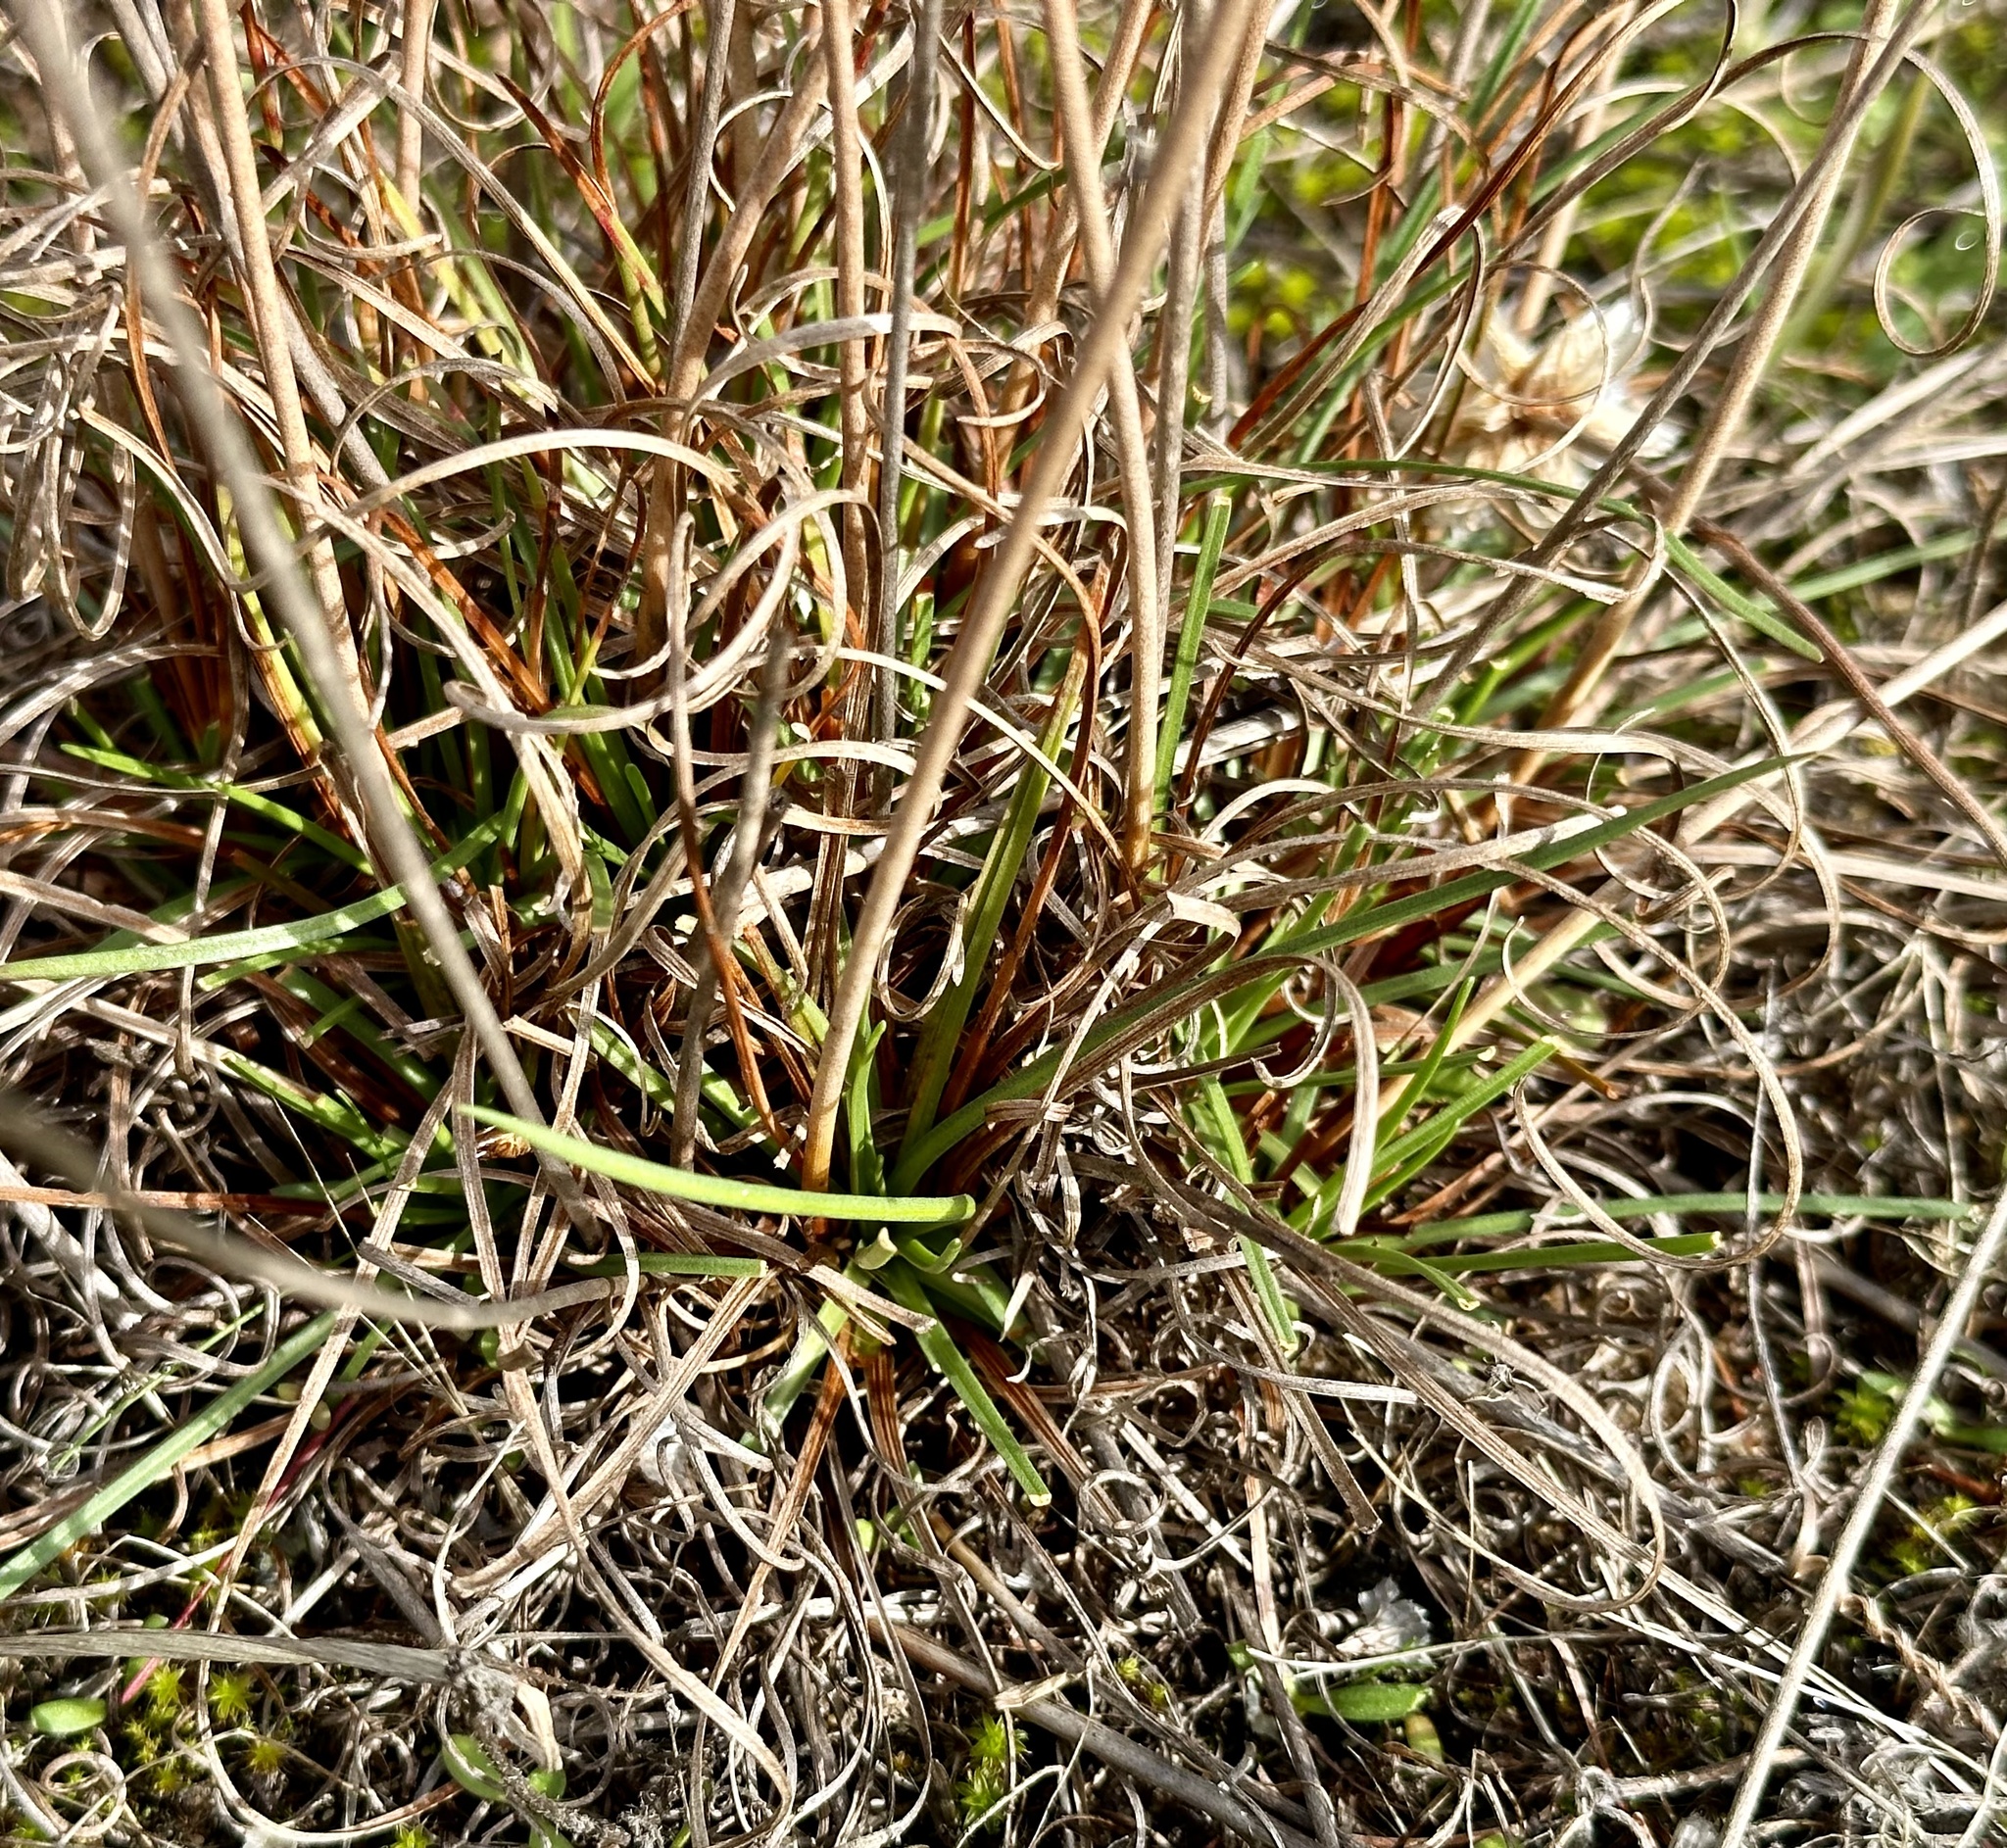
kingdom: Plantae
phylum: Tracheophyta
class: Magnoliopsida
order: Caryophyllales
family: Plumbaginaceae
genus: Armeria
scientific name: Armeria maritima
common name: Thrift
